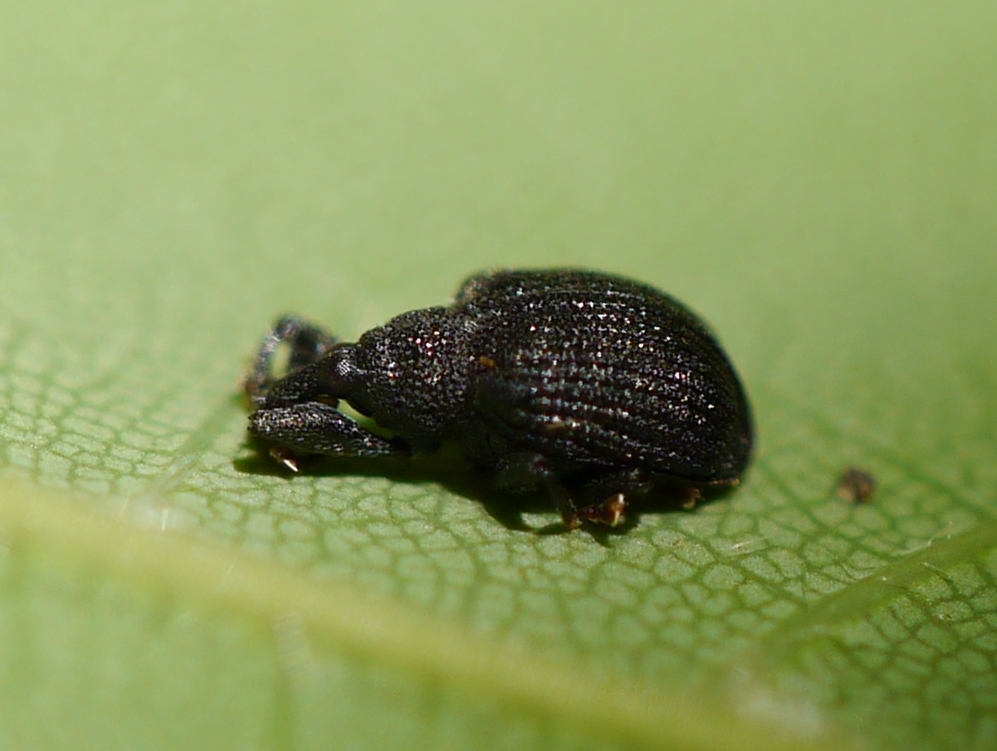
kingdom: Animalia
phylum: Arthropoda
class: Insecta
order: Coleoptera
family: Curculionidae
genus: Odontopus
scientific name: Odontopus calceatus
